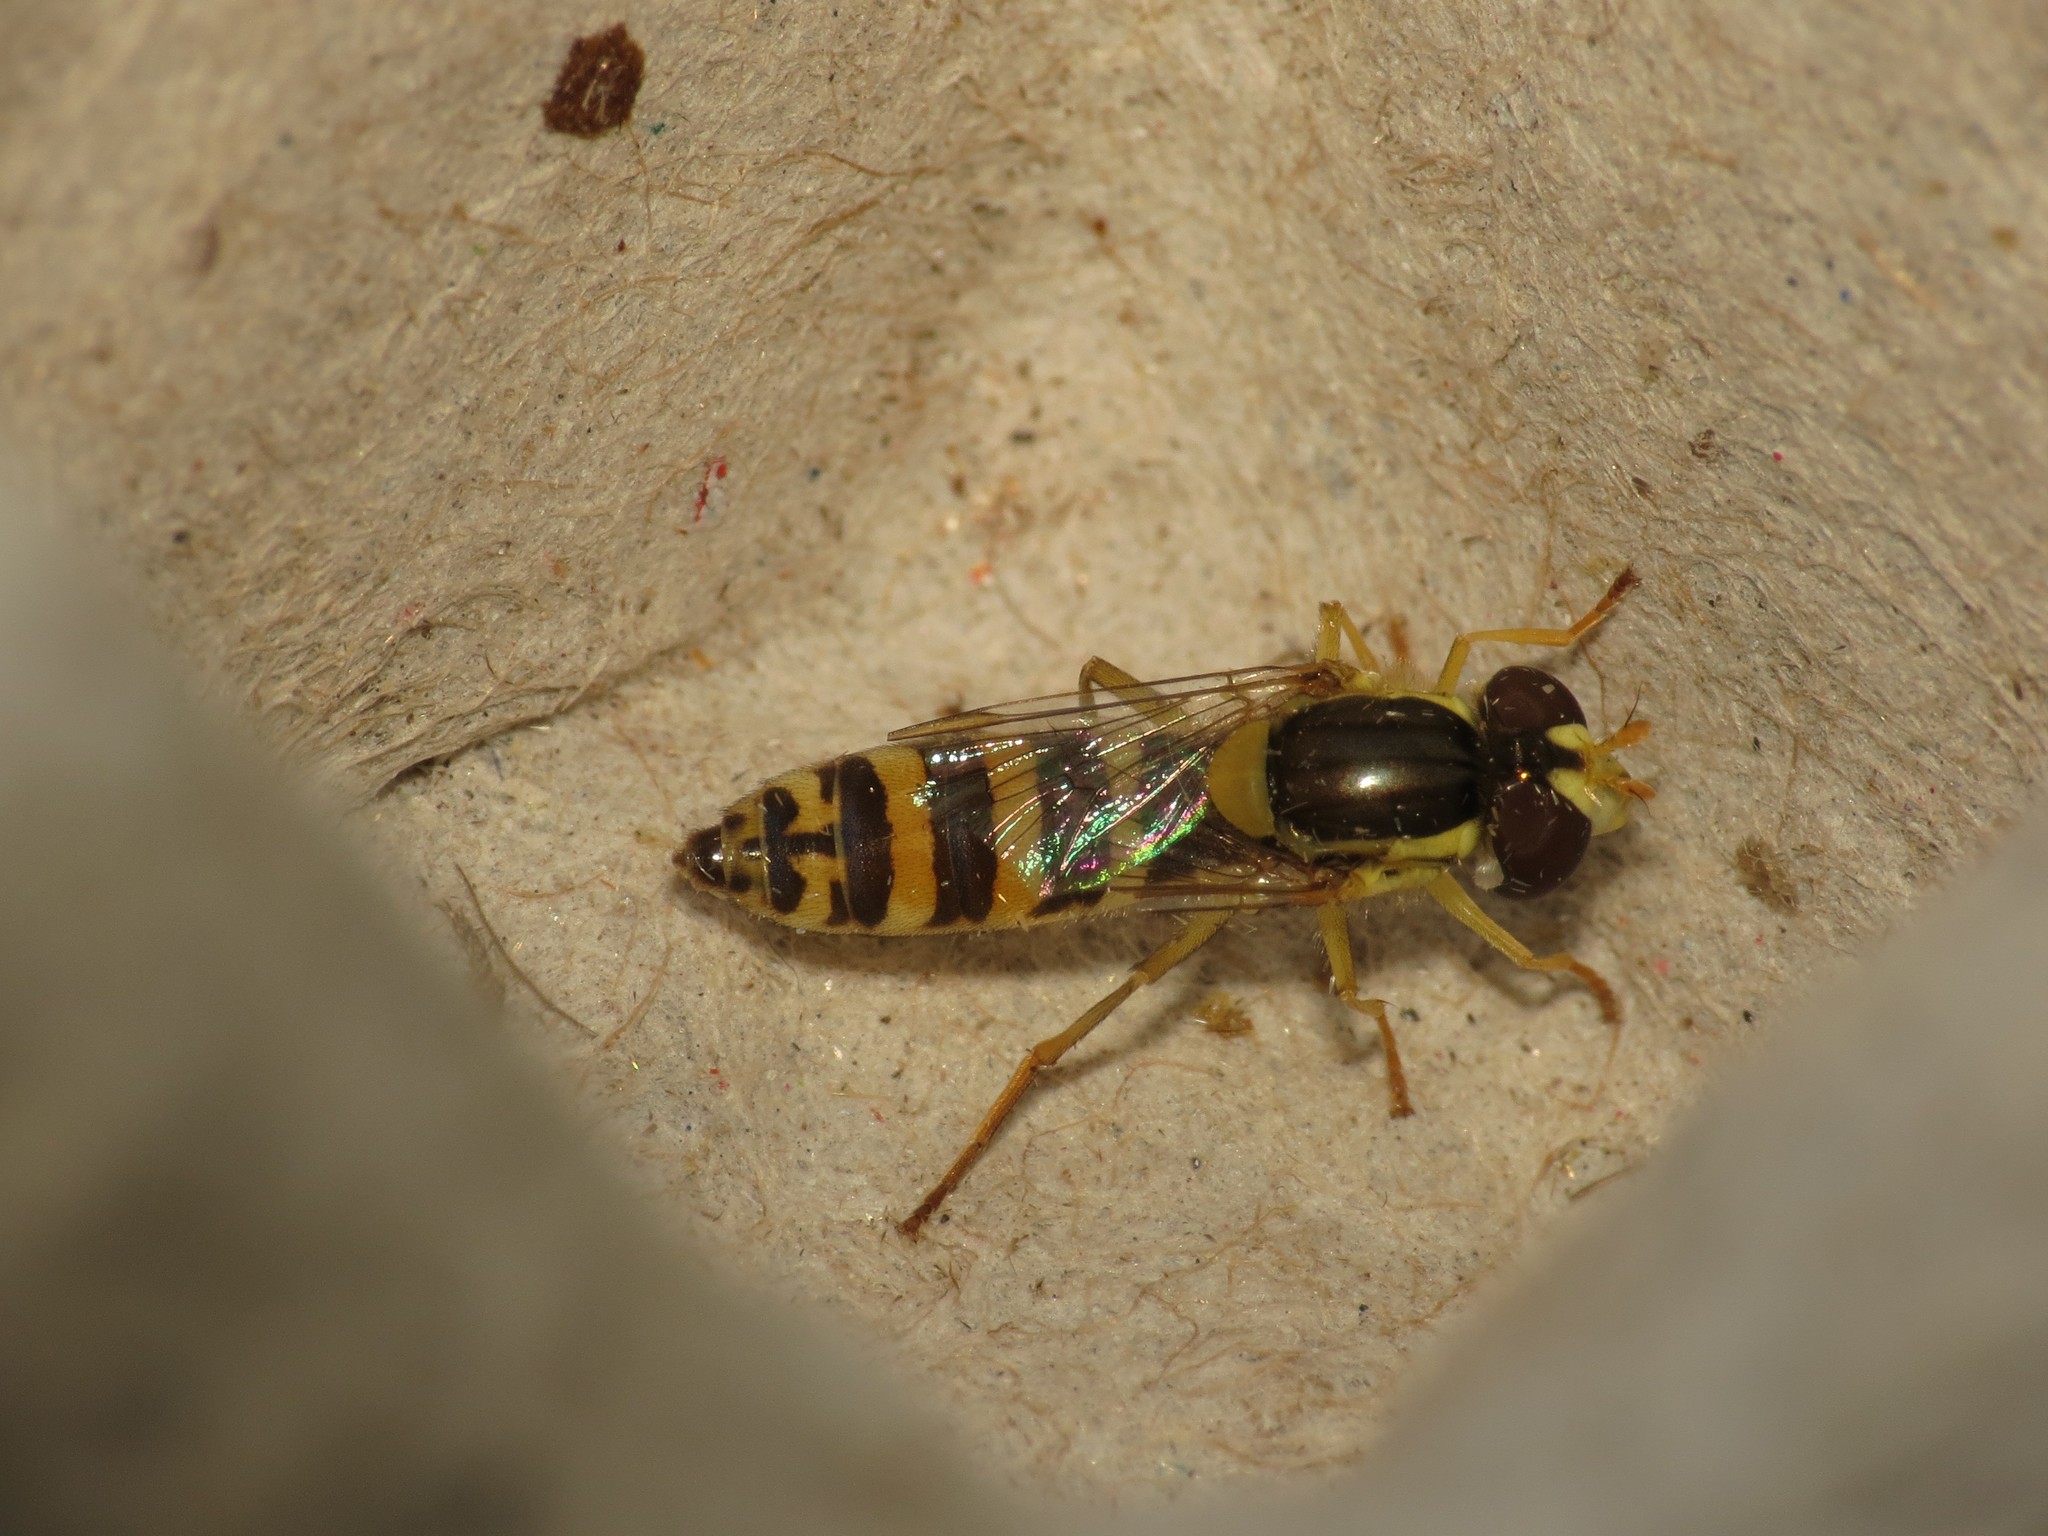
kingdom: Animalia
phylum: Arthropoda
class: Insecta
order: Diptera
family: Syrphidae
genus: Sphaerophoria
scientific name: Sphaerophoria
